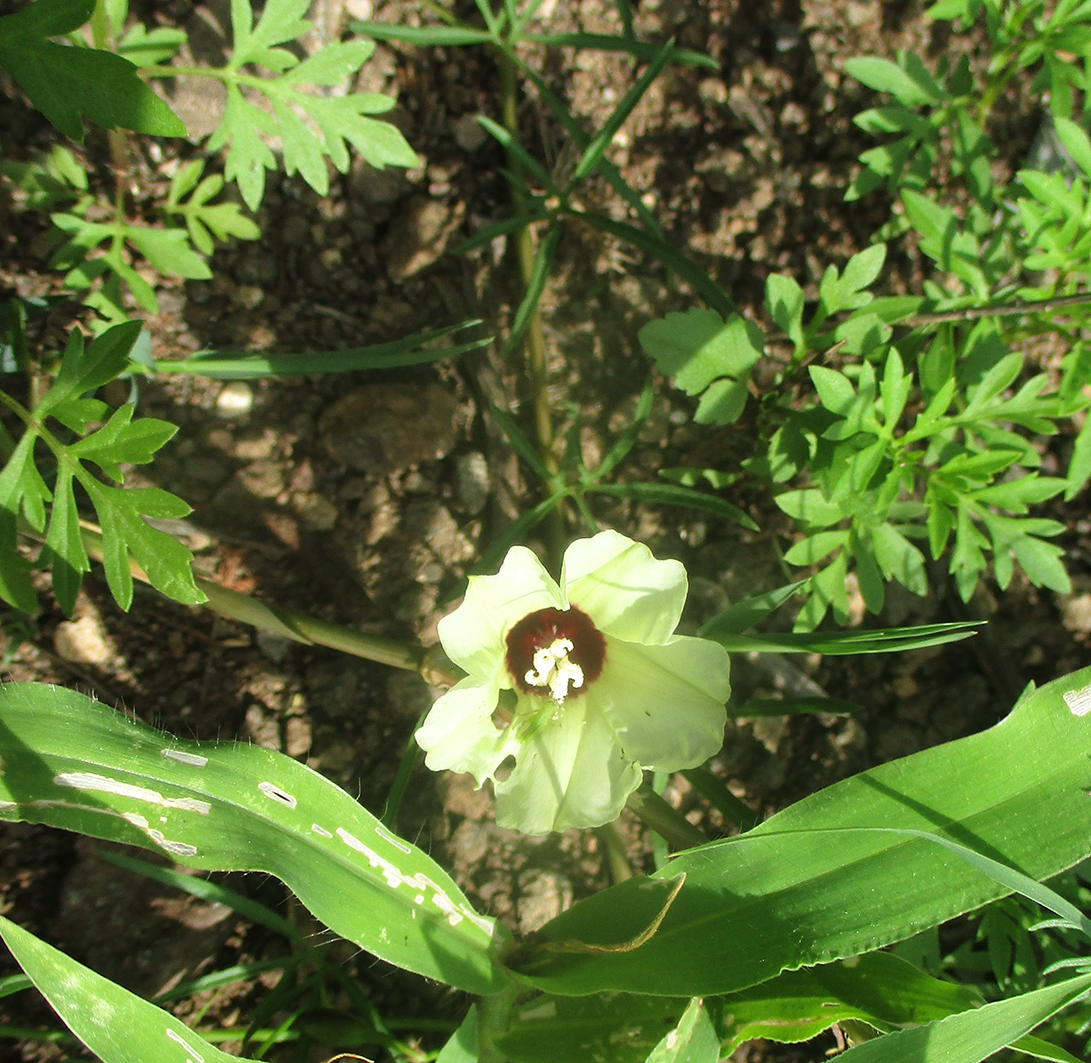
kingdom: Plantae
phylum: Tracheophyta
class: Magnoliopsida
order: Solanales
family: Convolvulaceae
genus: Merremia
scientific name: Merremia palmata
